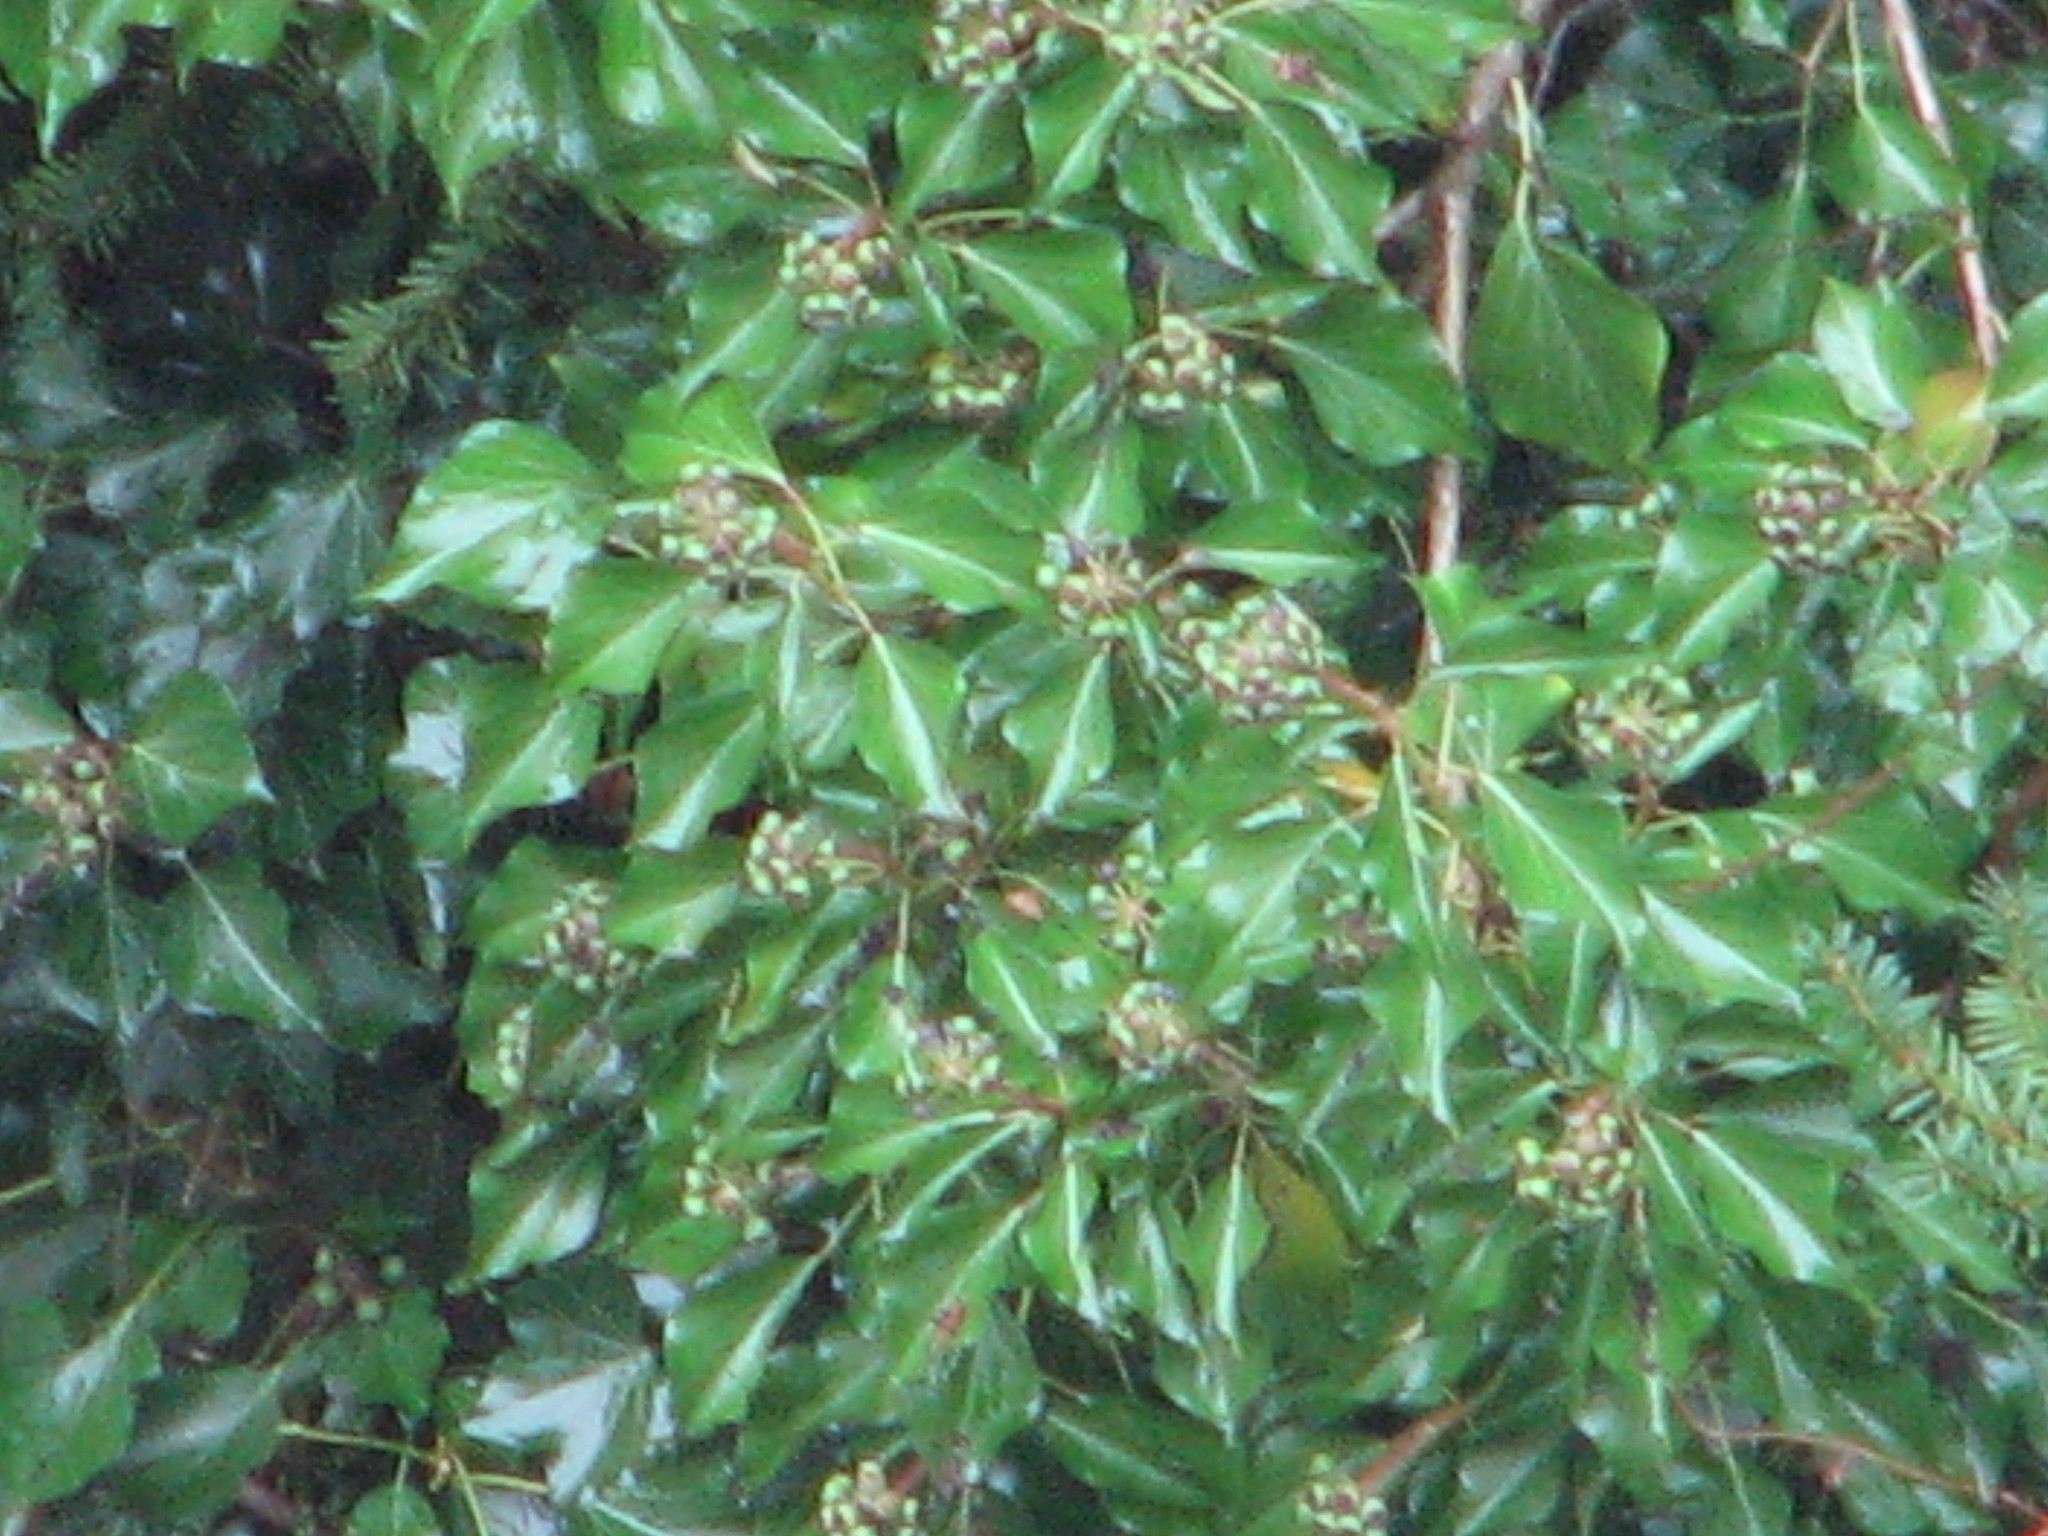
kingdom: Plantae
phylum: Tracheophyta
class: Magnoliopsida
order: Apiales
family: Araliaceae
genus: Hedera
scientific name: Hedera helix
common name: Ivy
